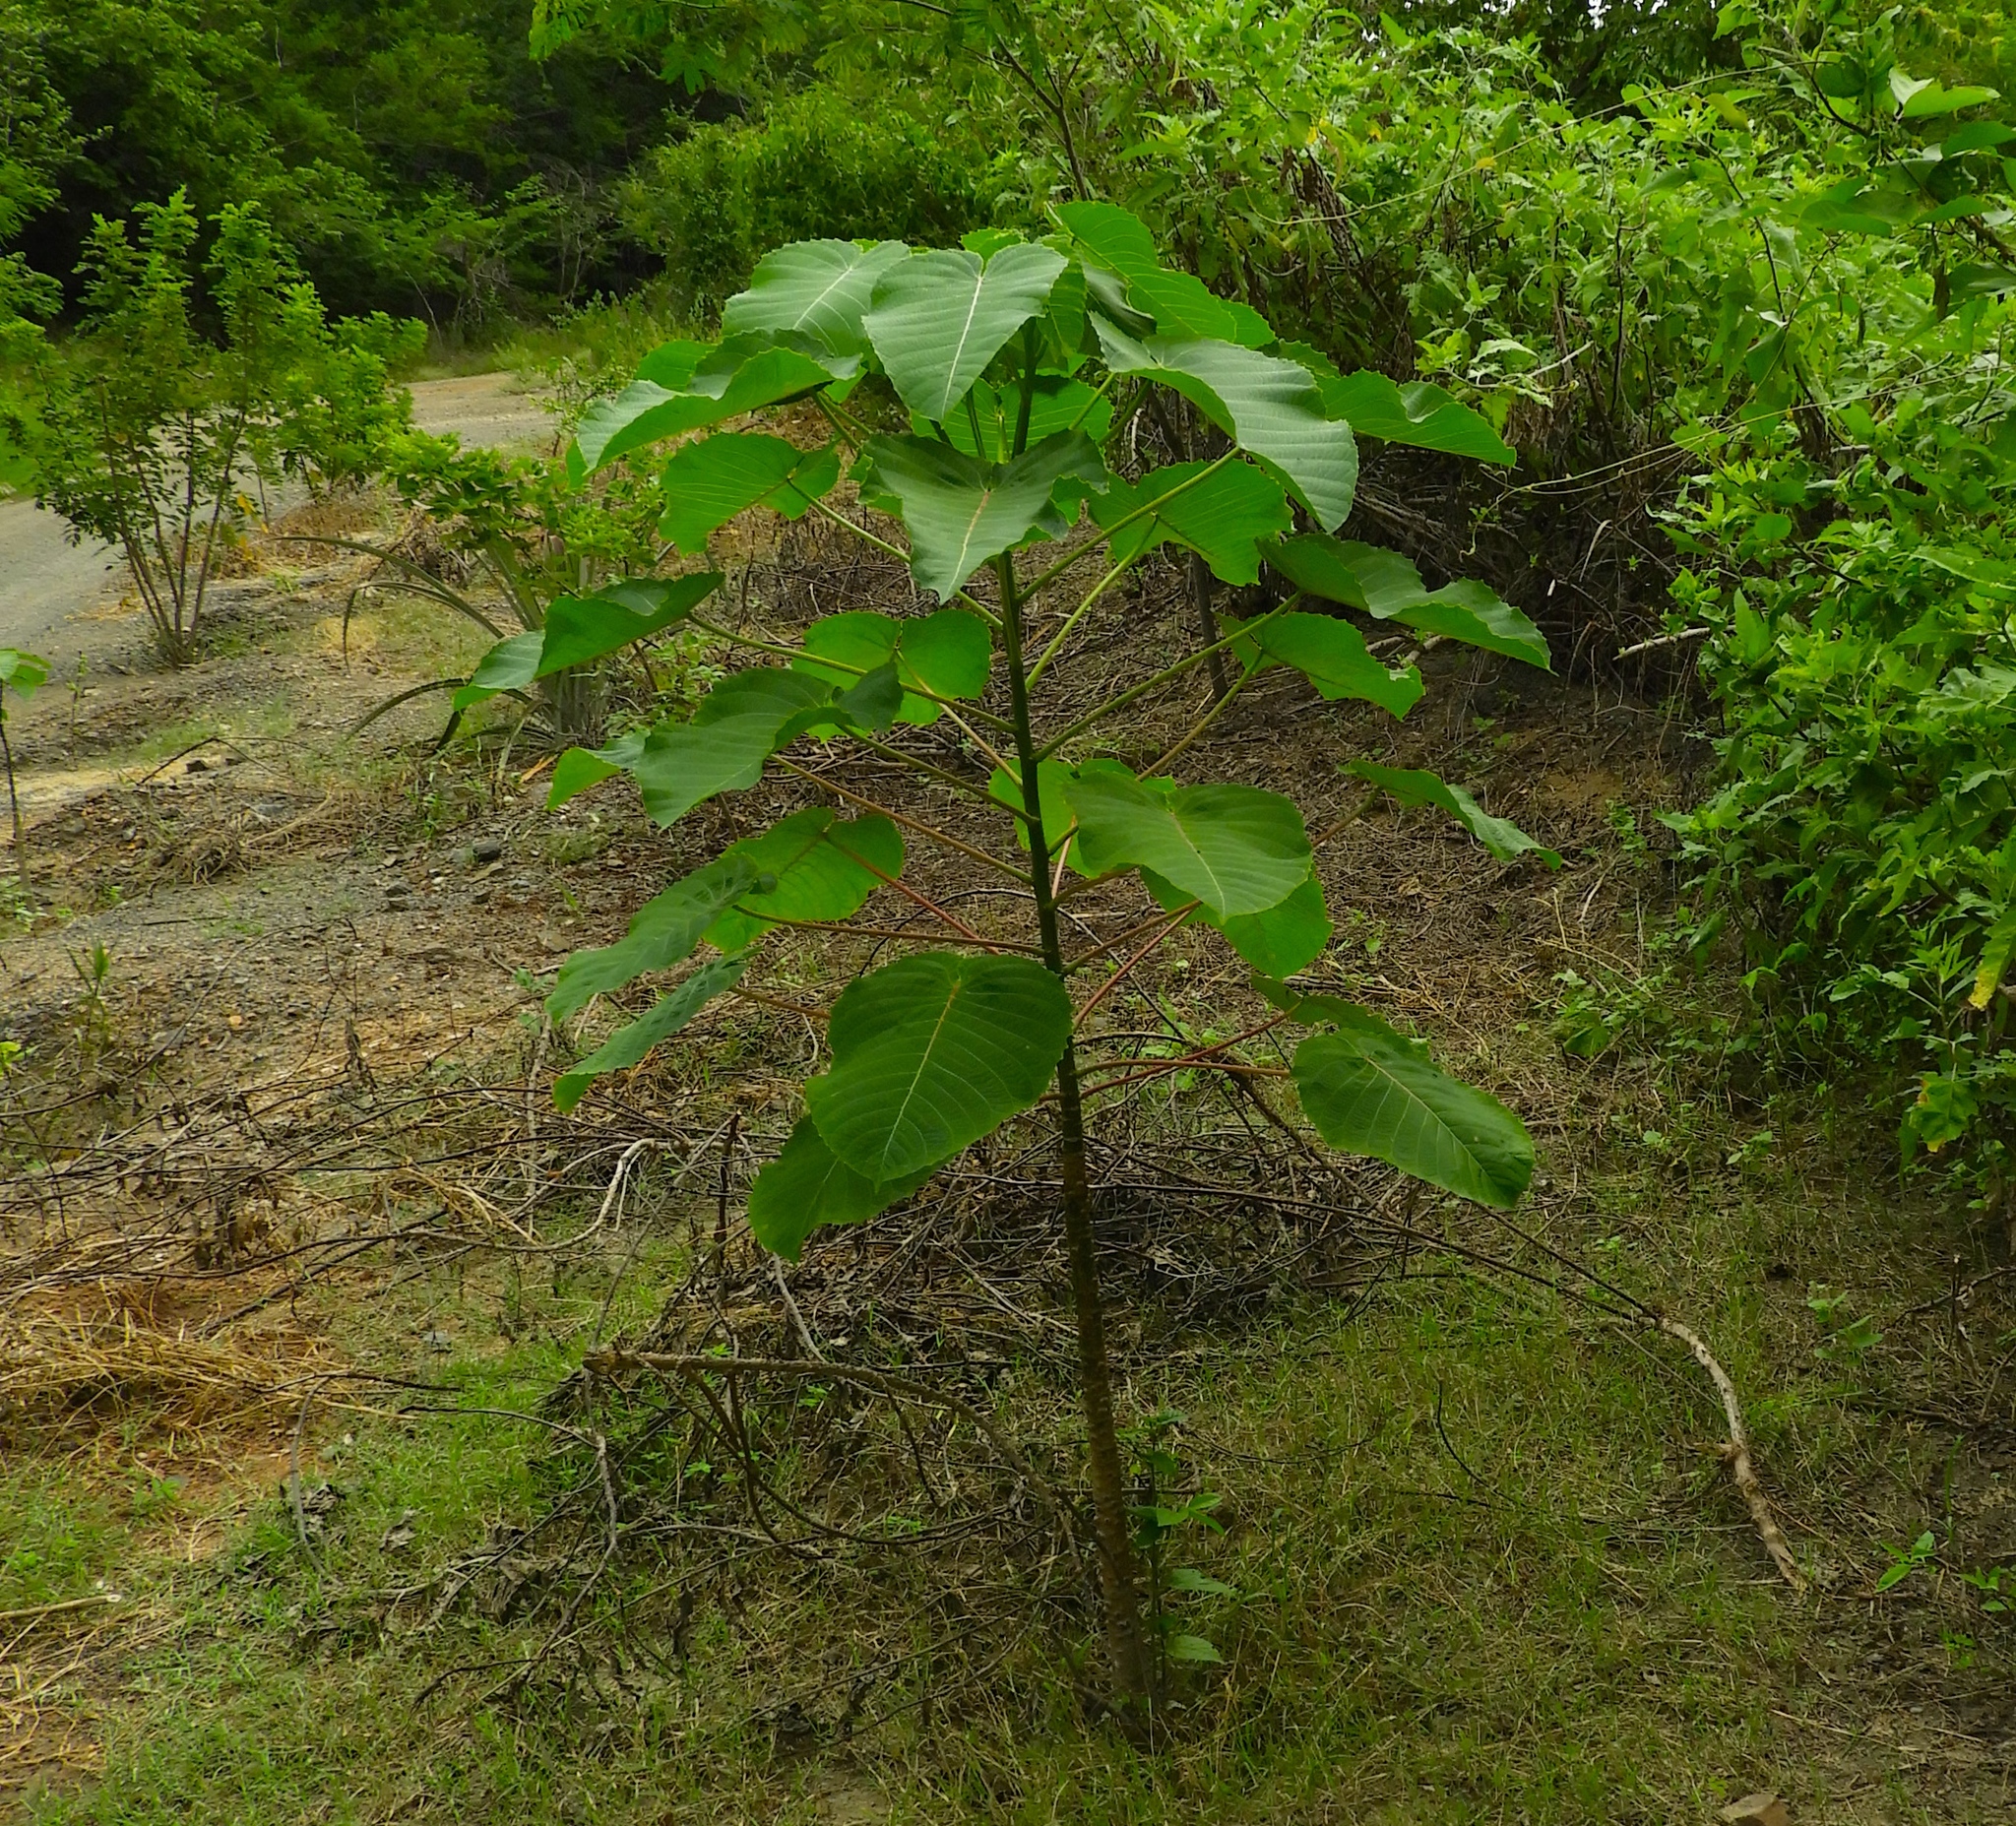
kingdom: Plantae
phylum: Tracheophyta
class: Magnoliopsida
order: Malpighiales
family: Euphorbiaceae
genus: Hura
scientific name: Hura polyandra
